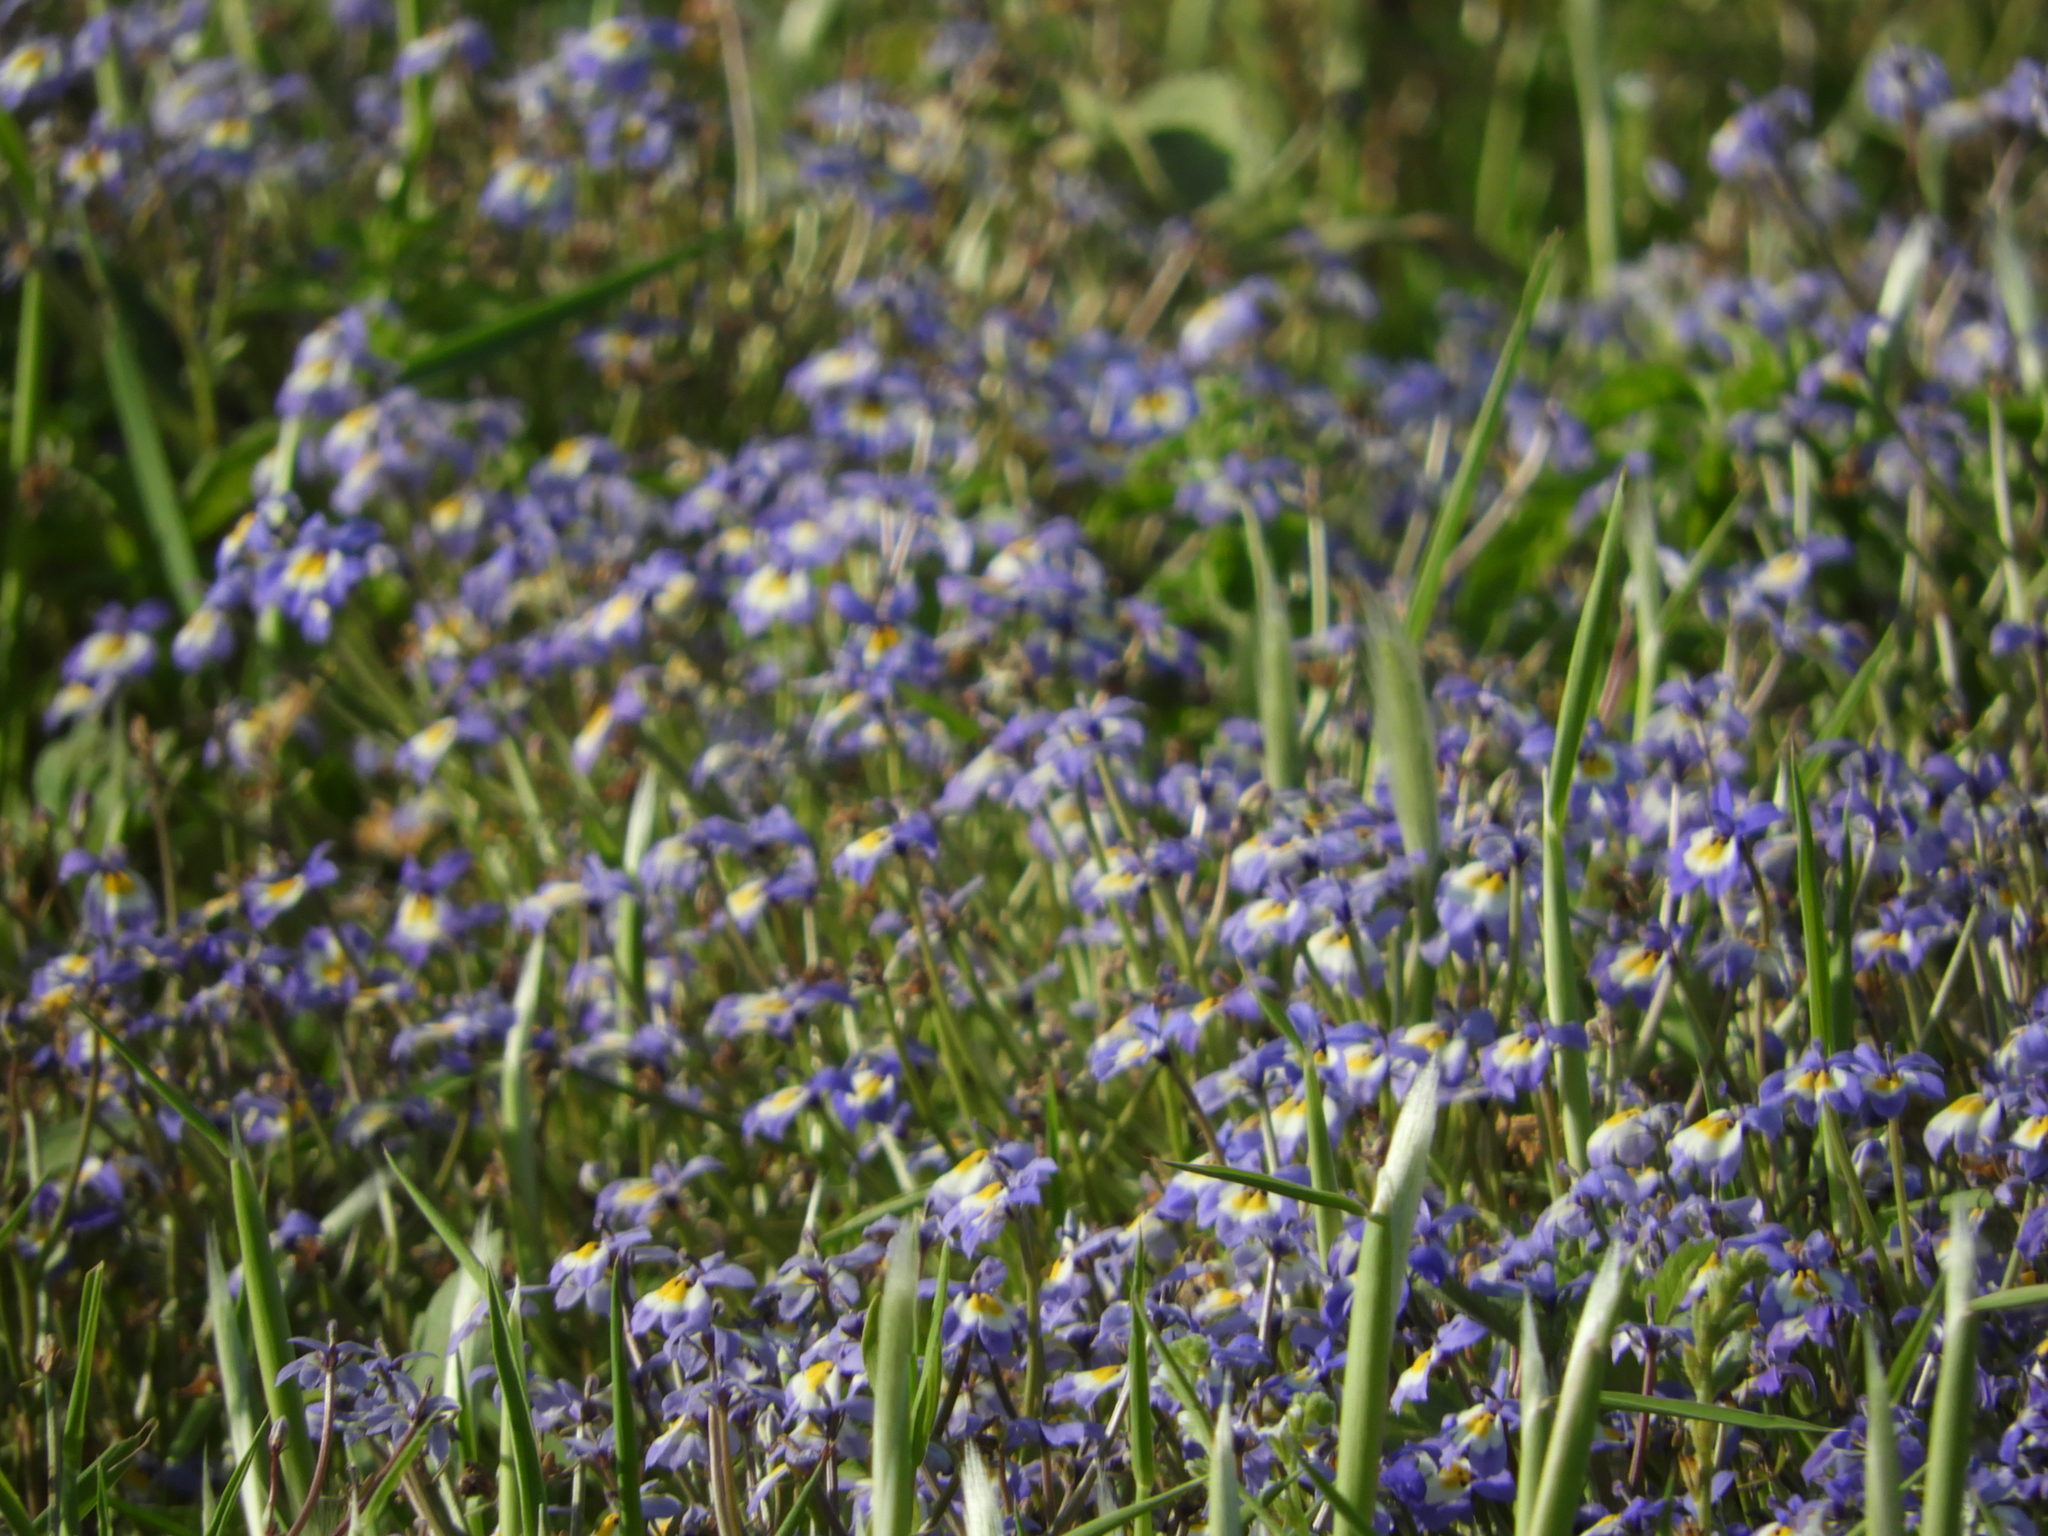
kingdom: Plantae
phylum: Tracheophyta
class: Magnoliopsida
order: Asterales
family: Campanulaceae
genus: Downingia
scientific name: Downingia pulchella
